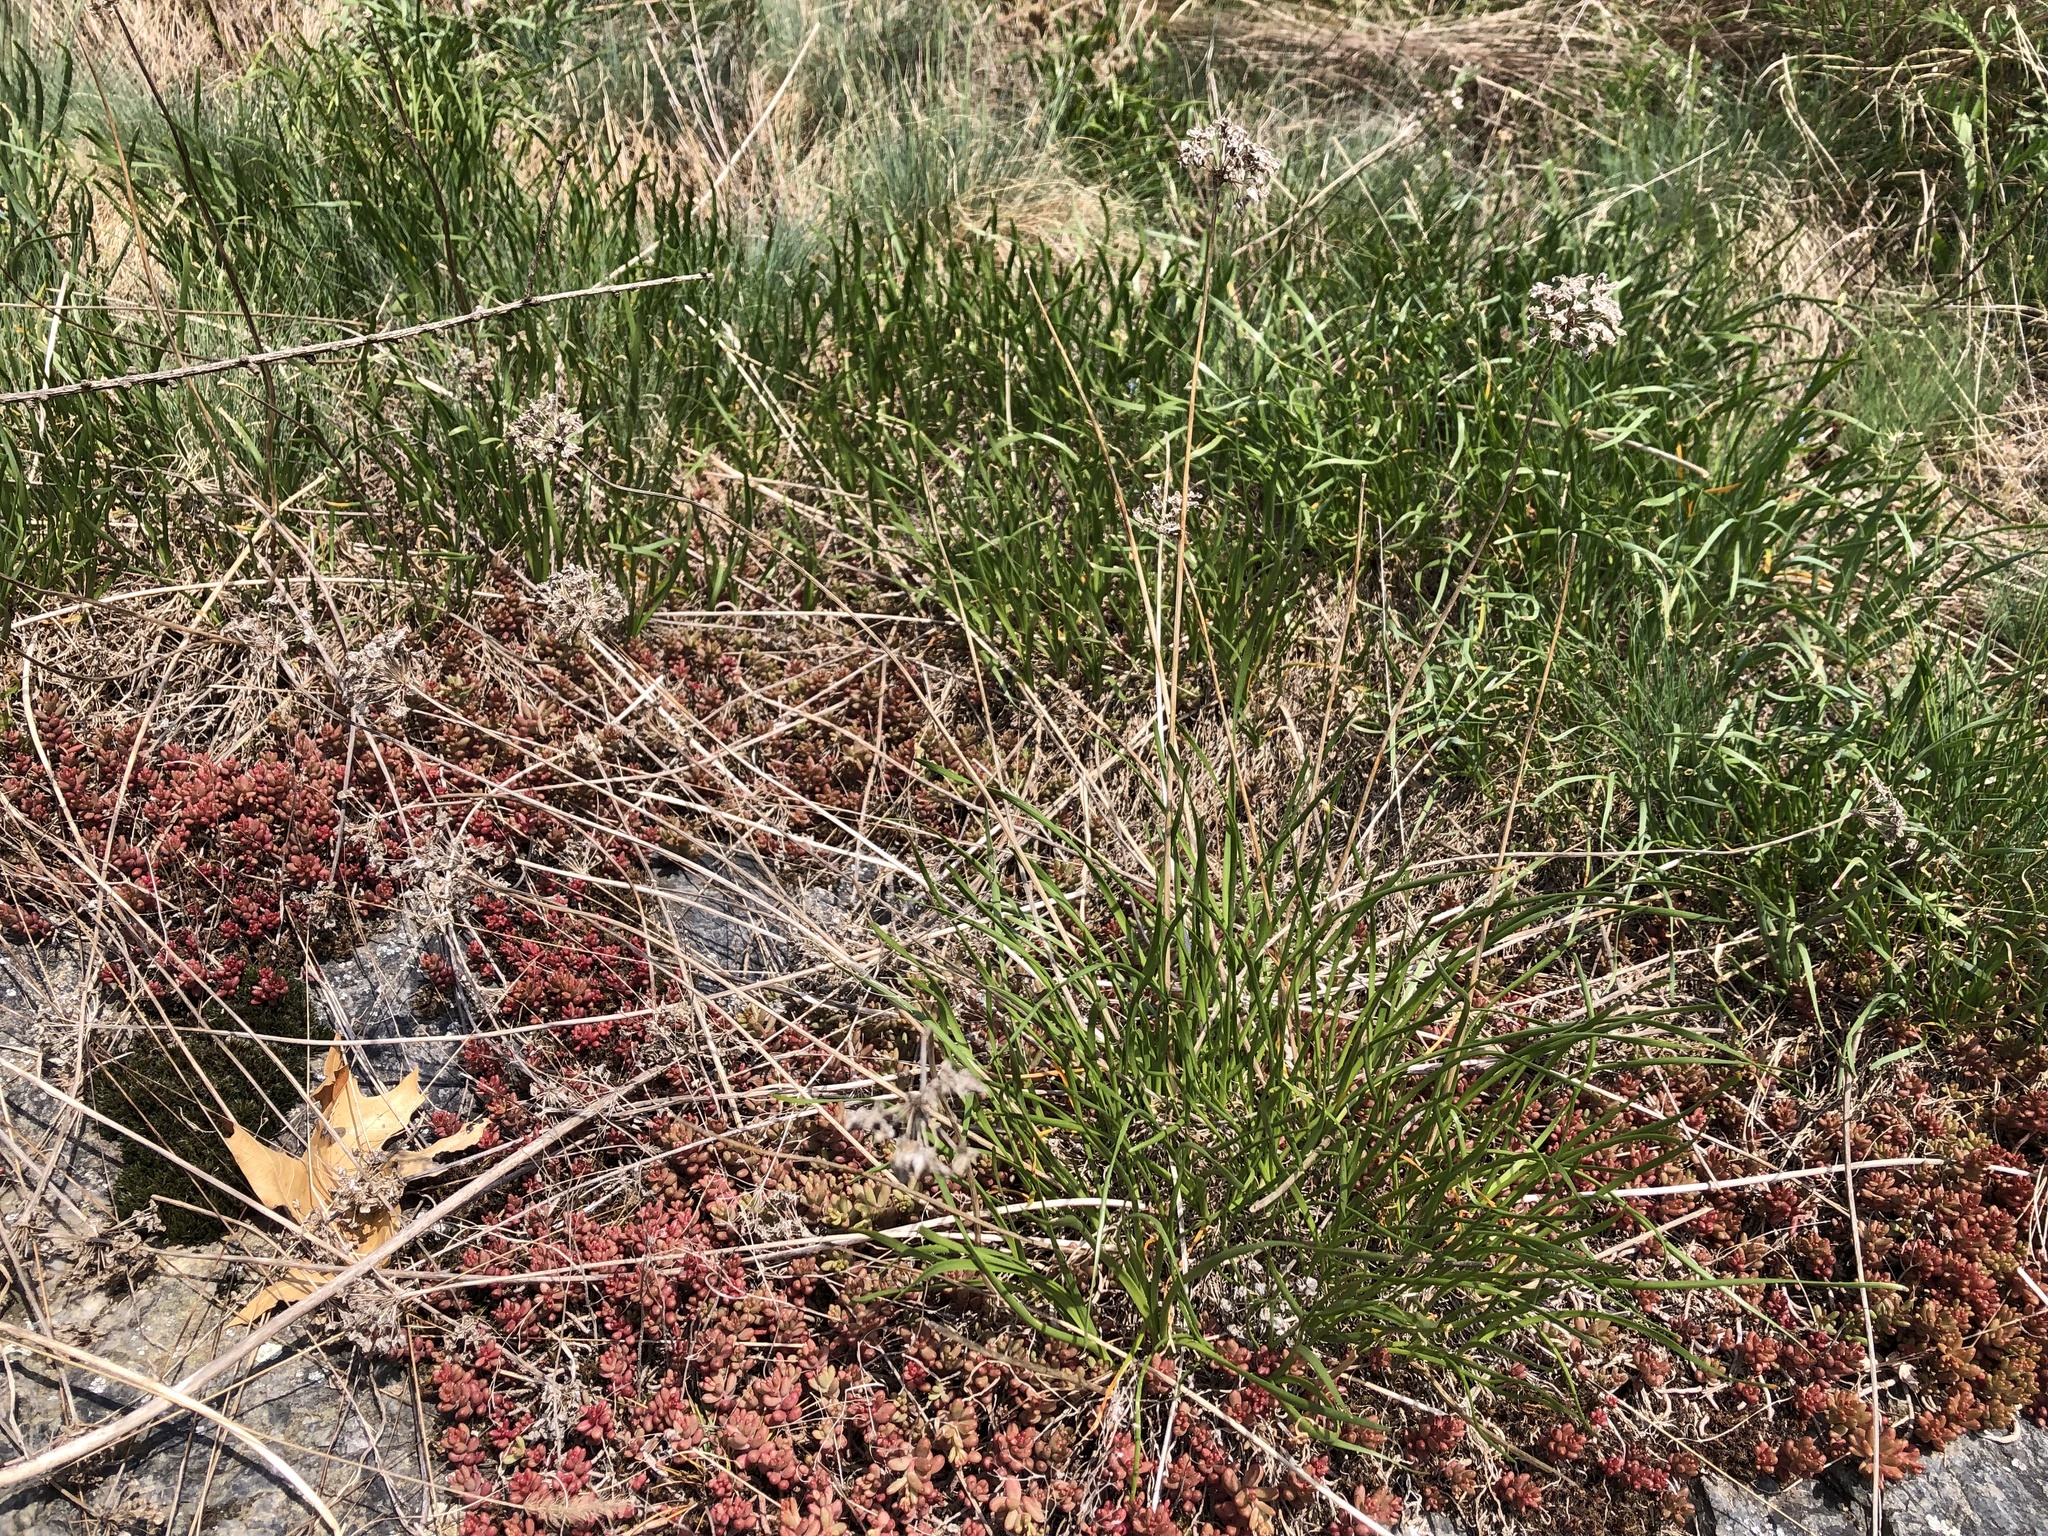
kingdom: Plantae
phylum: Tracheophyta
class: Liliopsida
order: Asparagales
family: Amaryllidaceae
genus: Allium
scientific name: Allium lusitanicum
